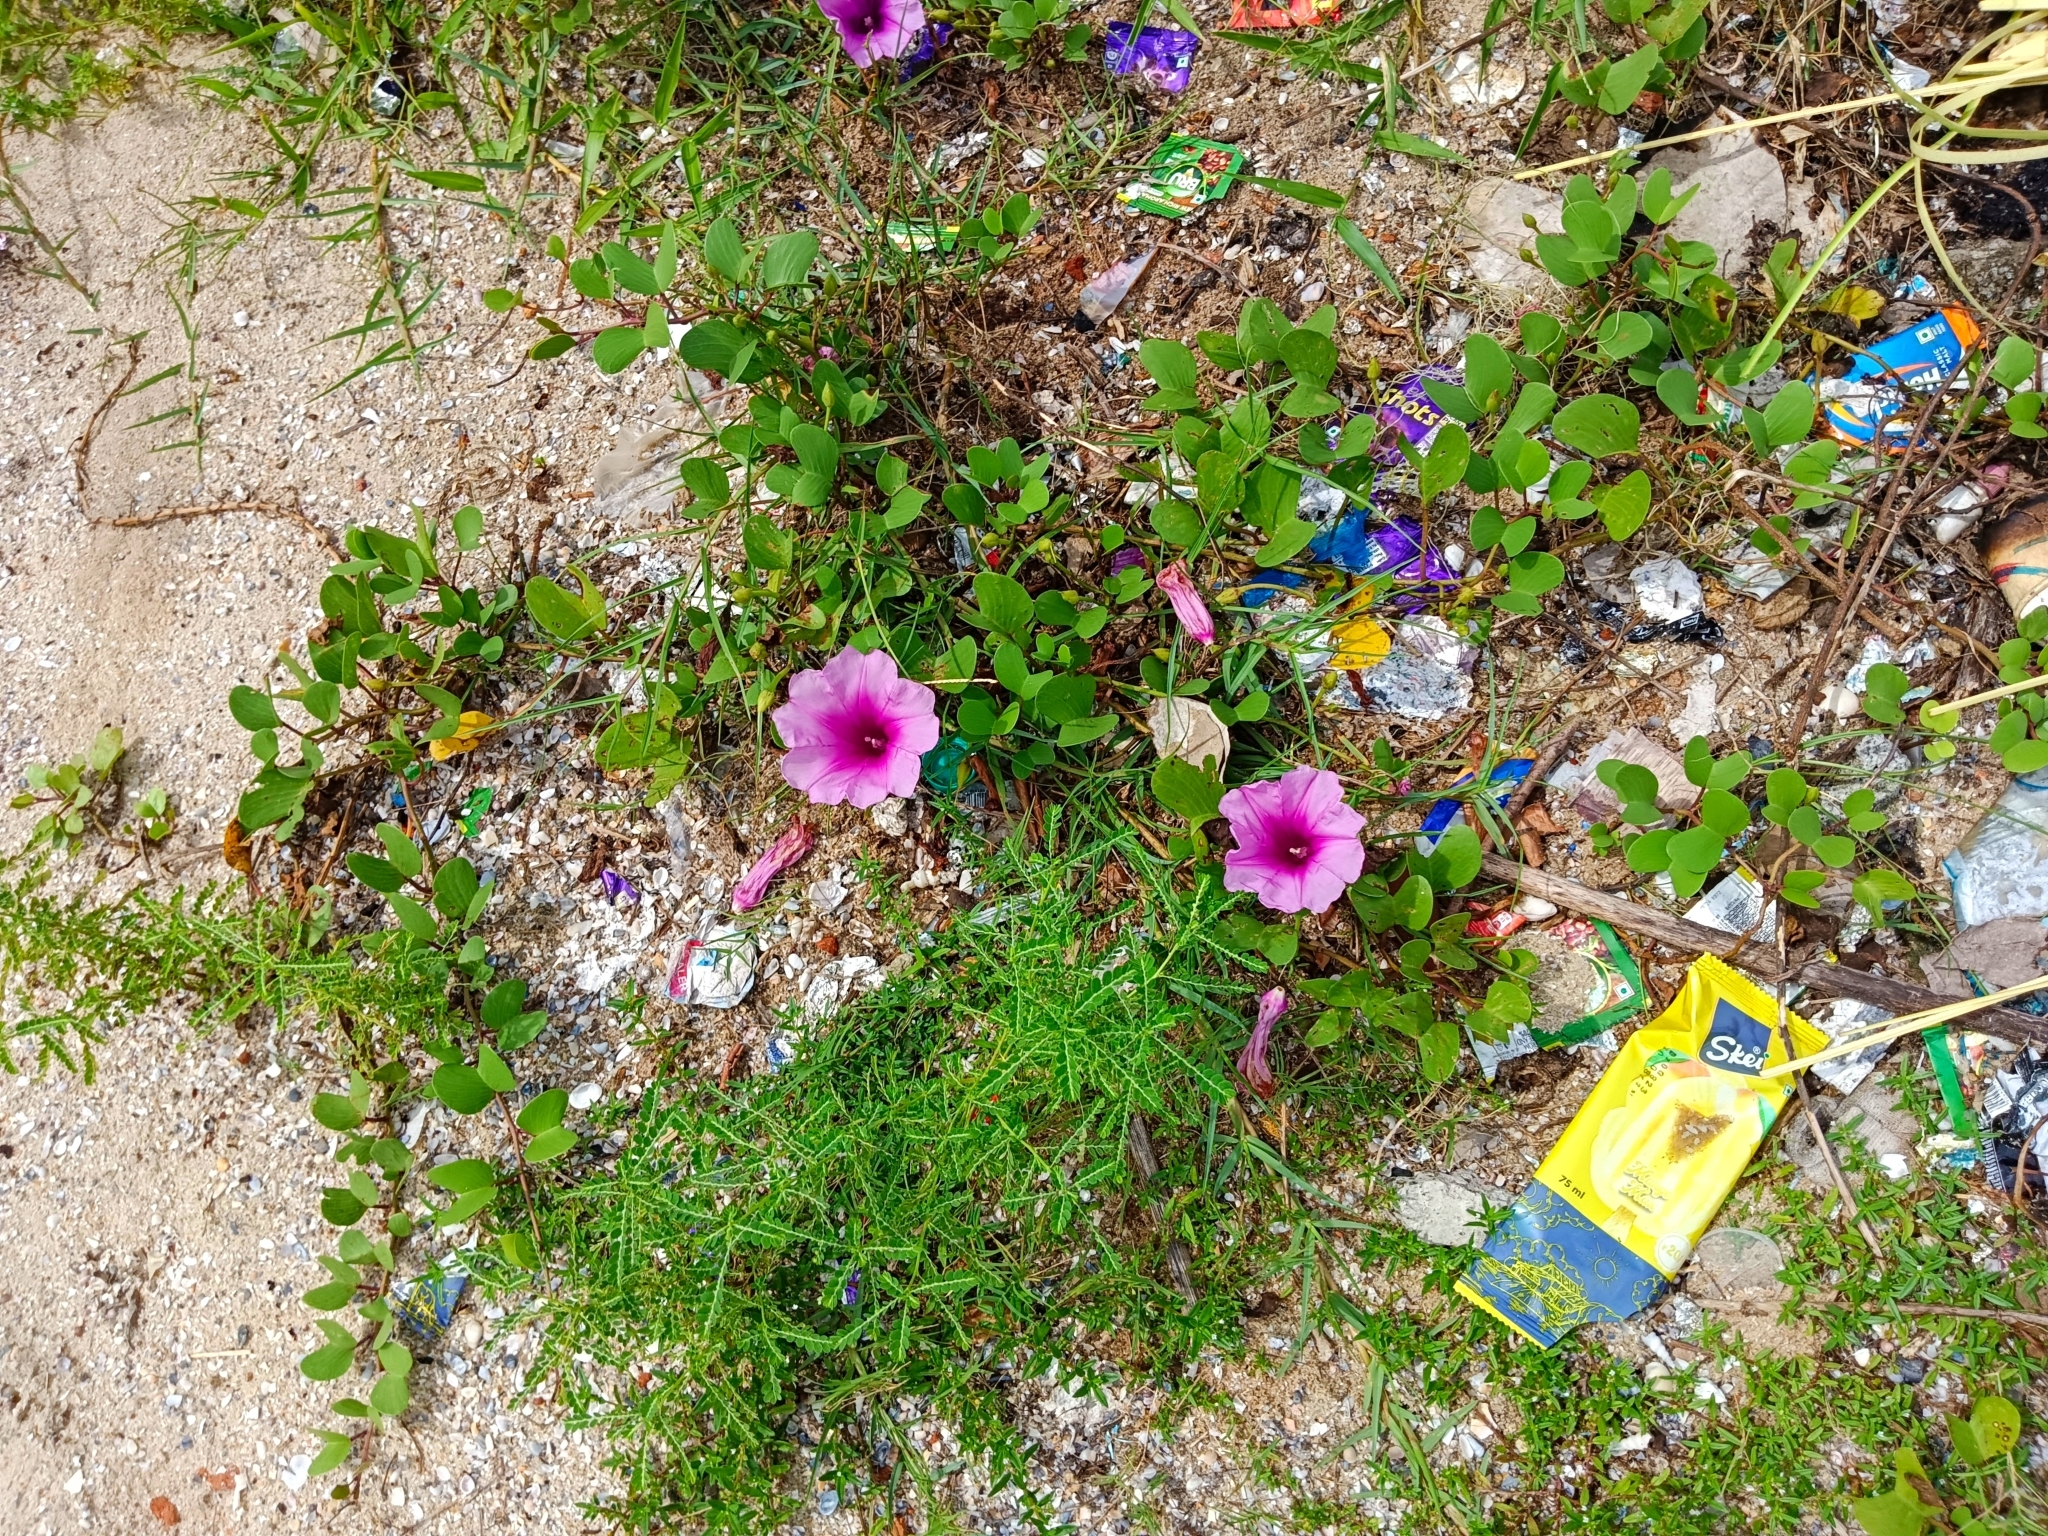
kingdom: Plantae
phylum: Tracheophyta
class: Magnoliopsida
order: Solanales
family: Convolvulaceae
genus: Ipomoea
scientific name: Ipomoea pes-caprae
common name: Beach morning glory
